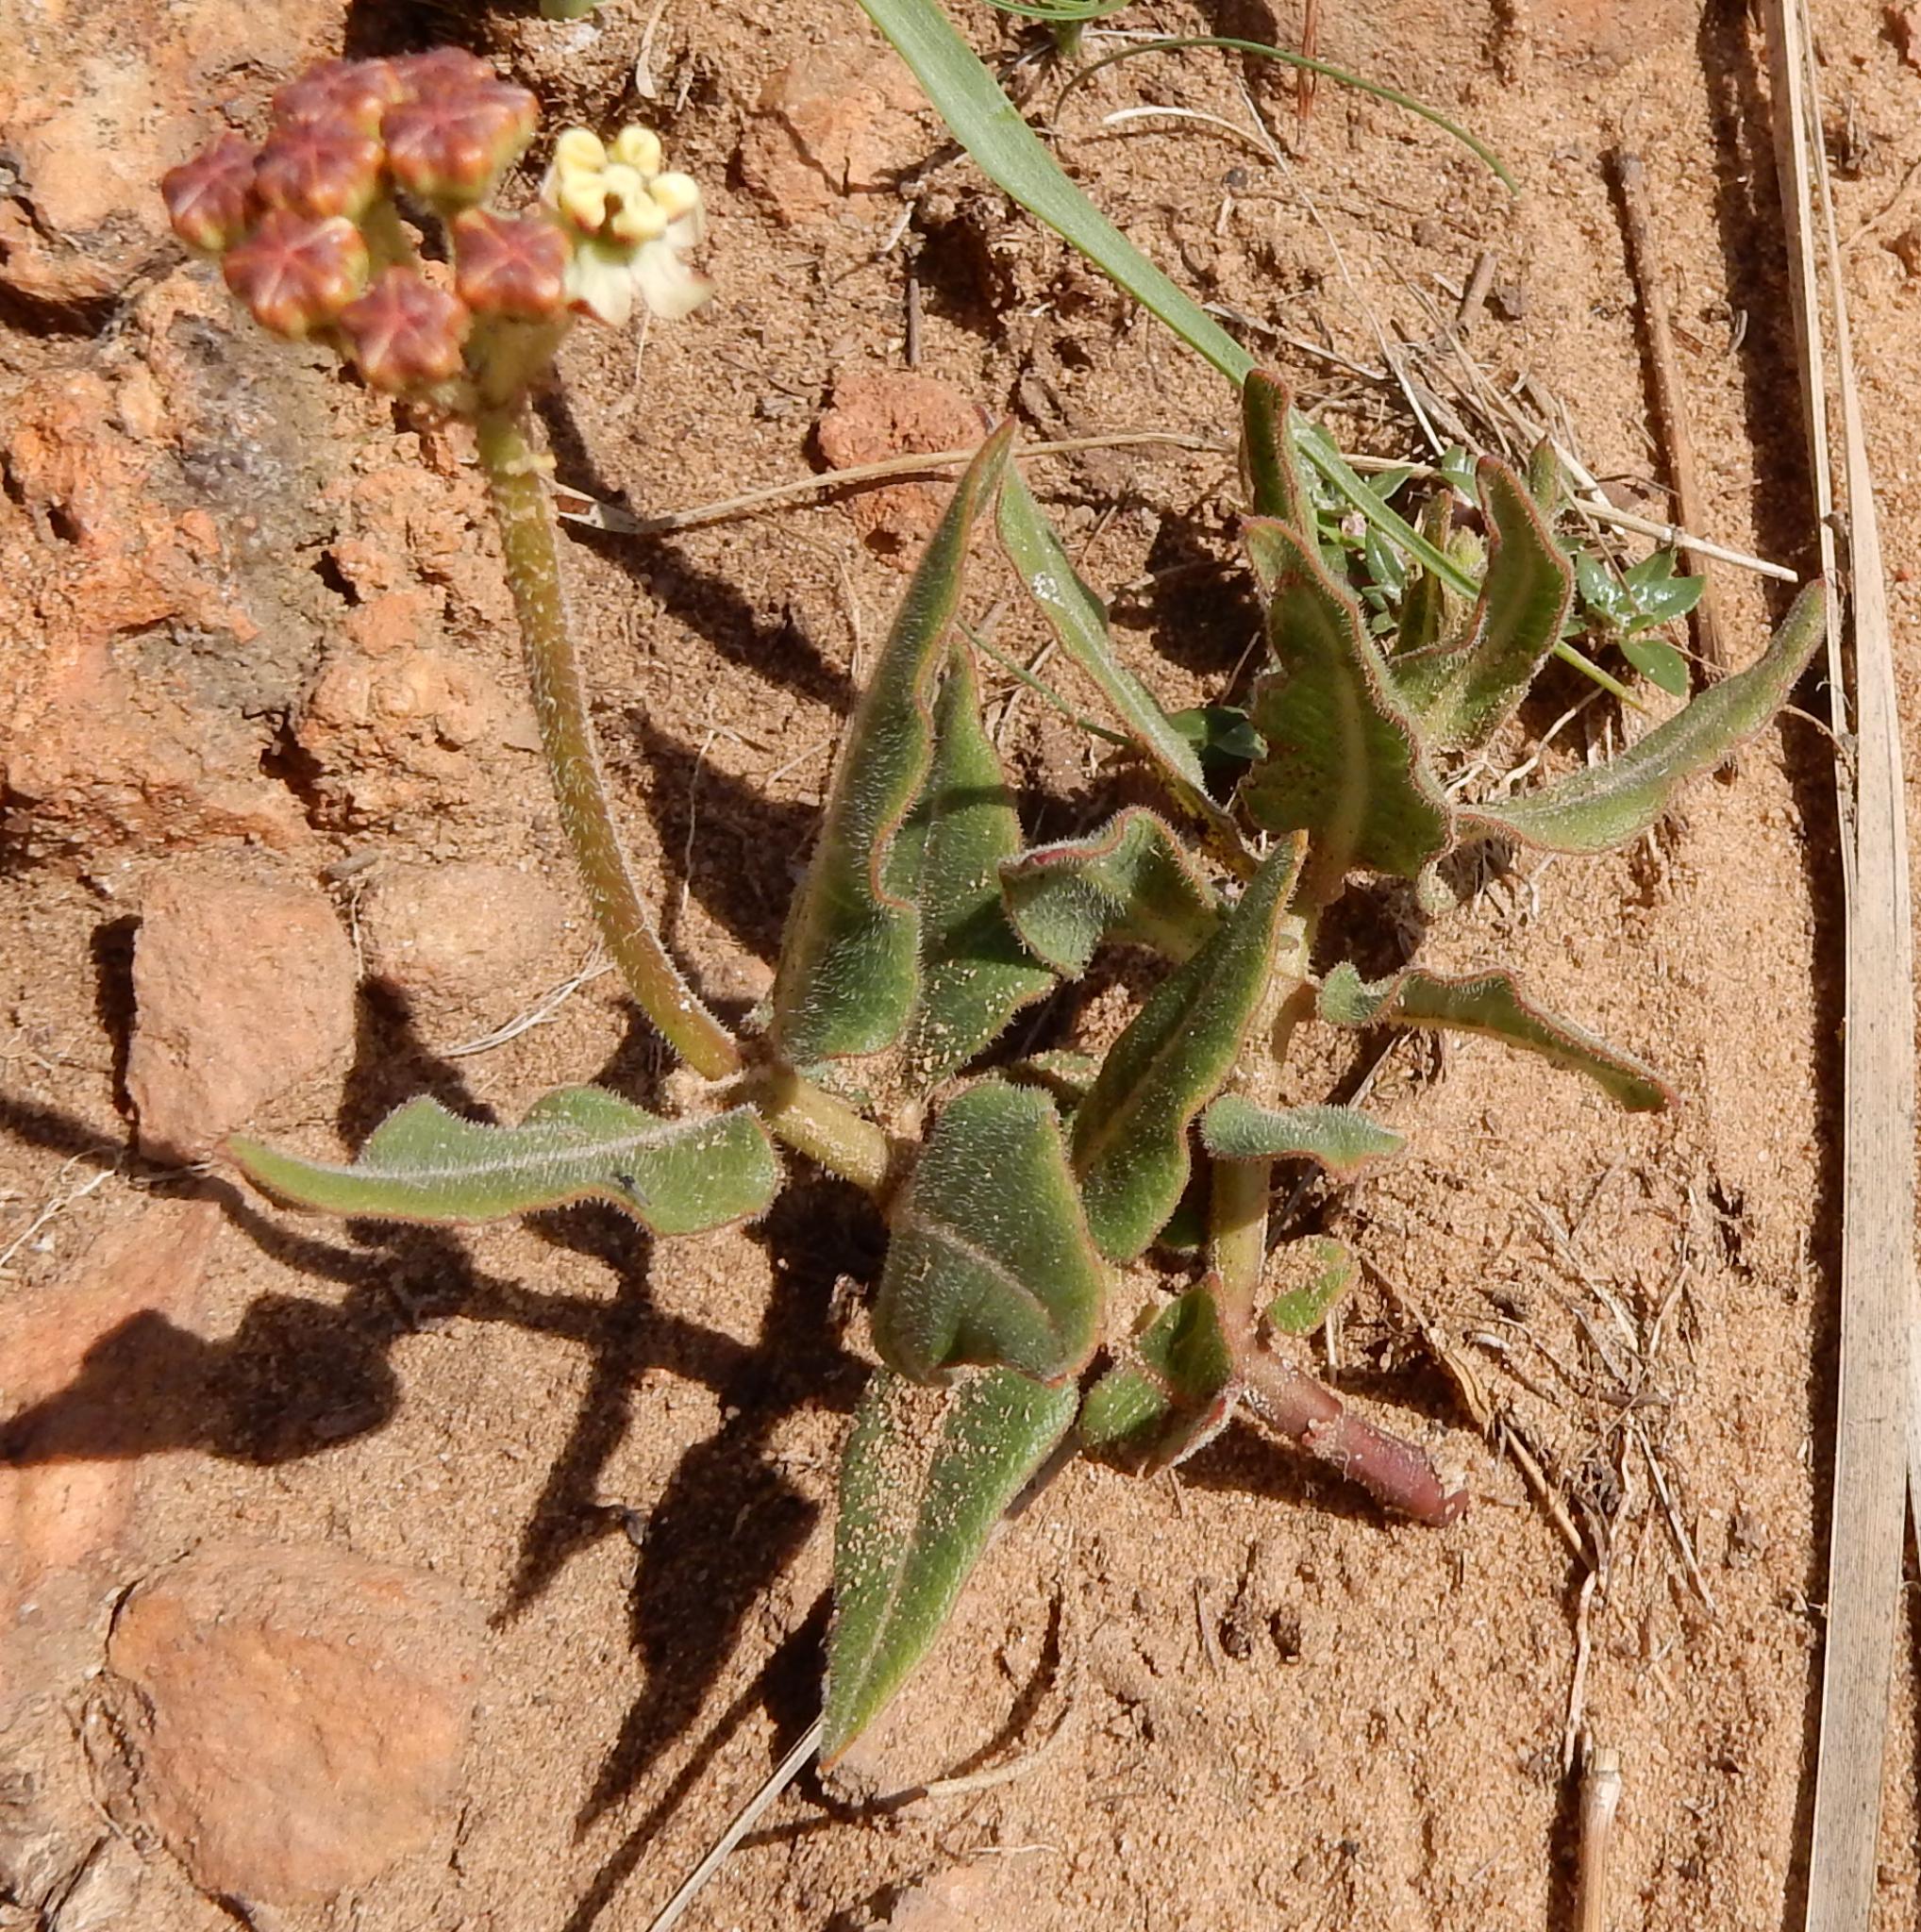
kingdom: Plantae
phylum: Tracheophyta
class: Magnoliopsida
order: Gentianales
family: Apocynaceae
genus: Asclepias
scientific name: Asclepias fallax
